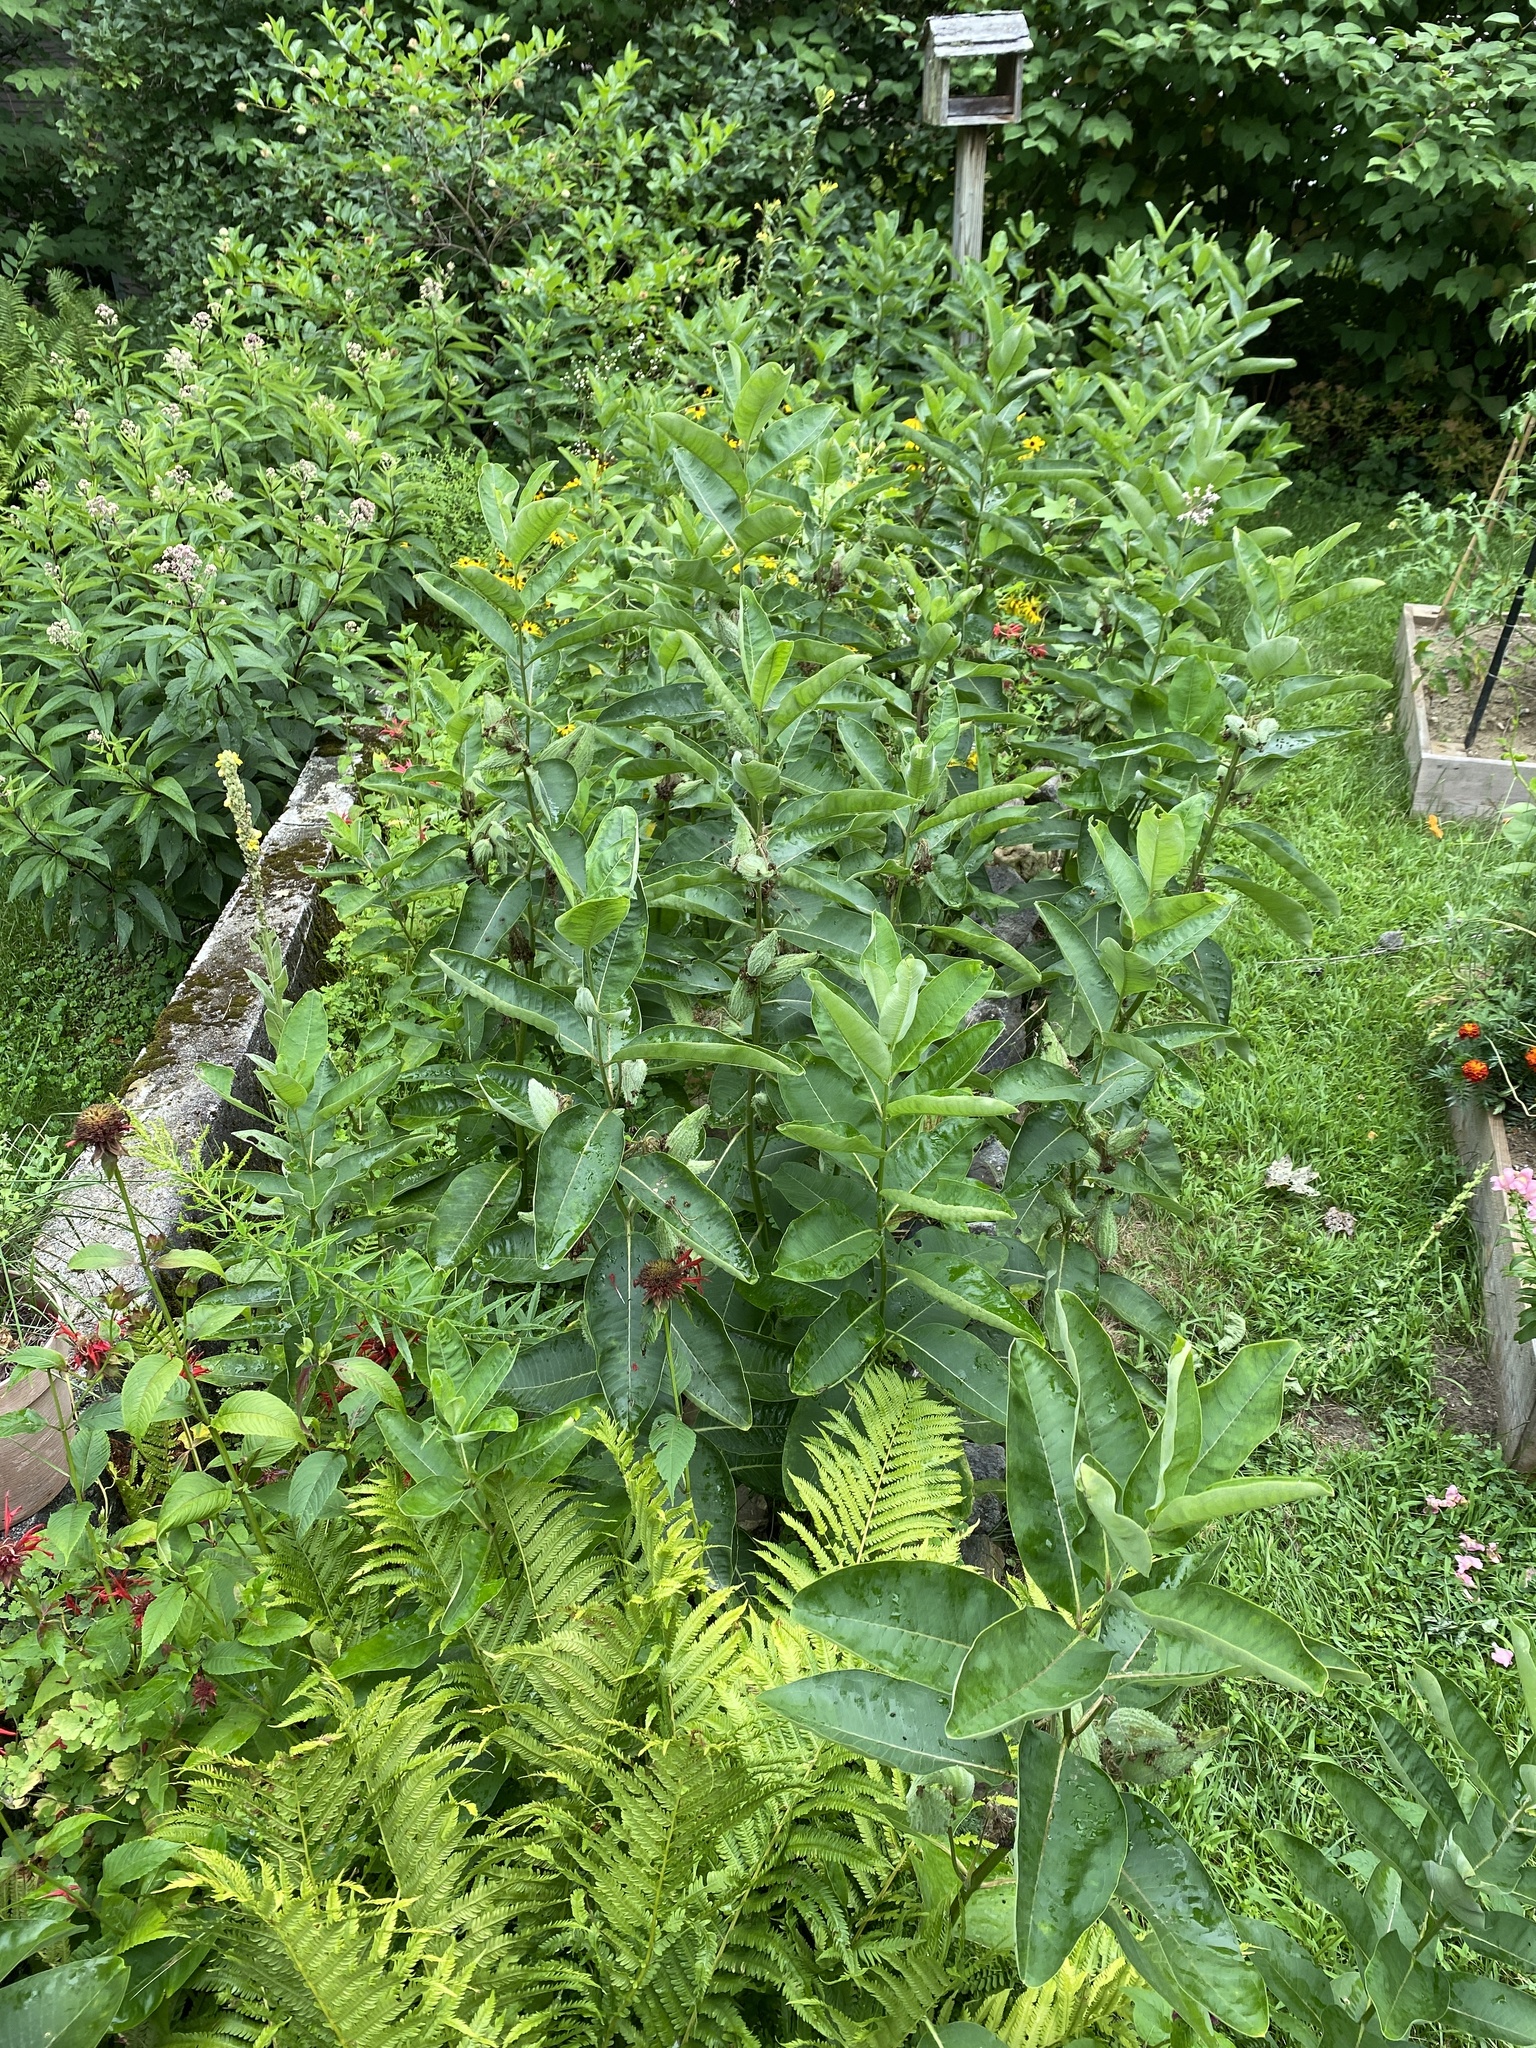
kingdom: Plantae
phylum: Tracheophyta
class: Magnoliopsida
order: Gentianales
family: Apocynaceae
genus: Asclepias
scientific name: Asclepias syriaca
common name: Common milkweed
